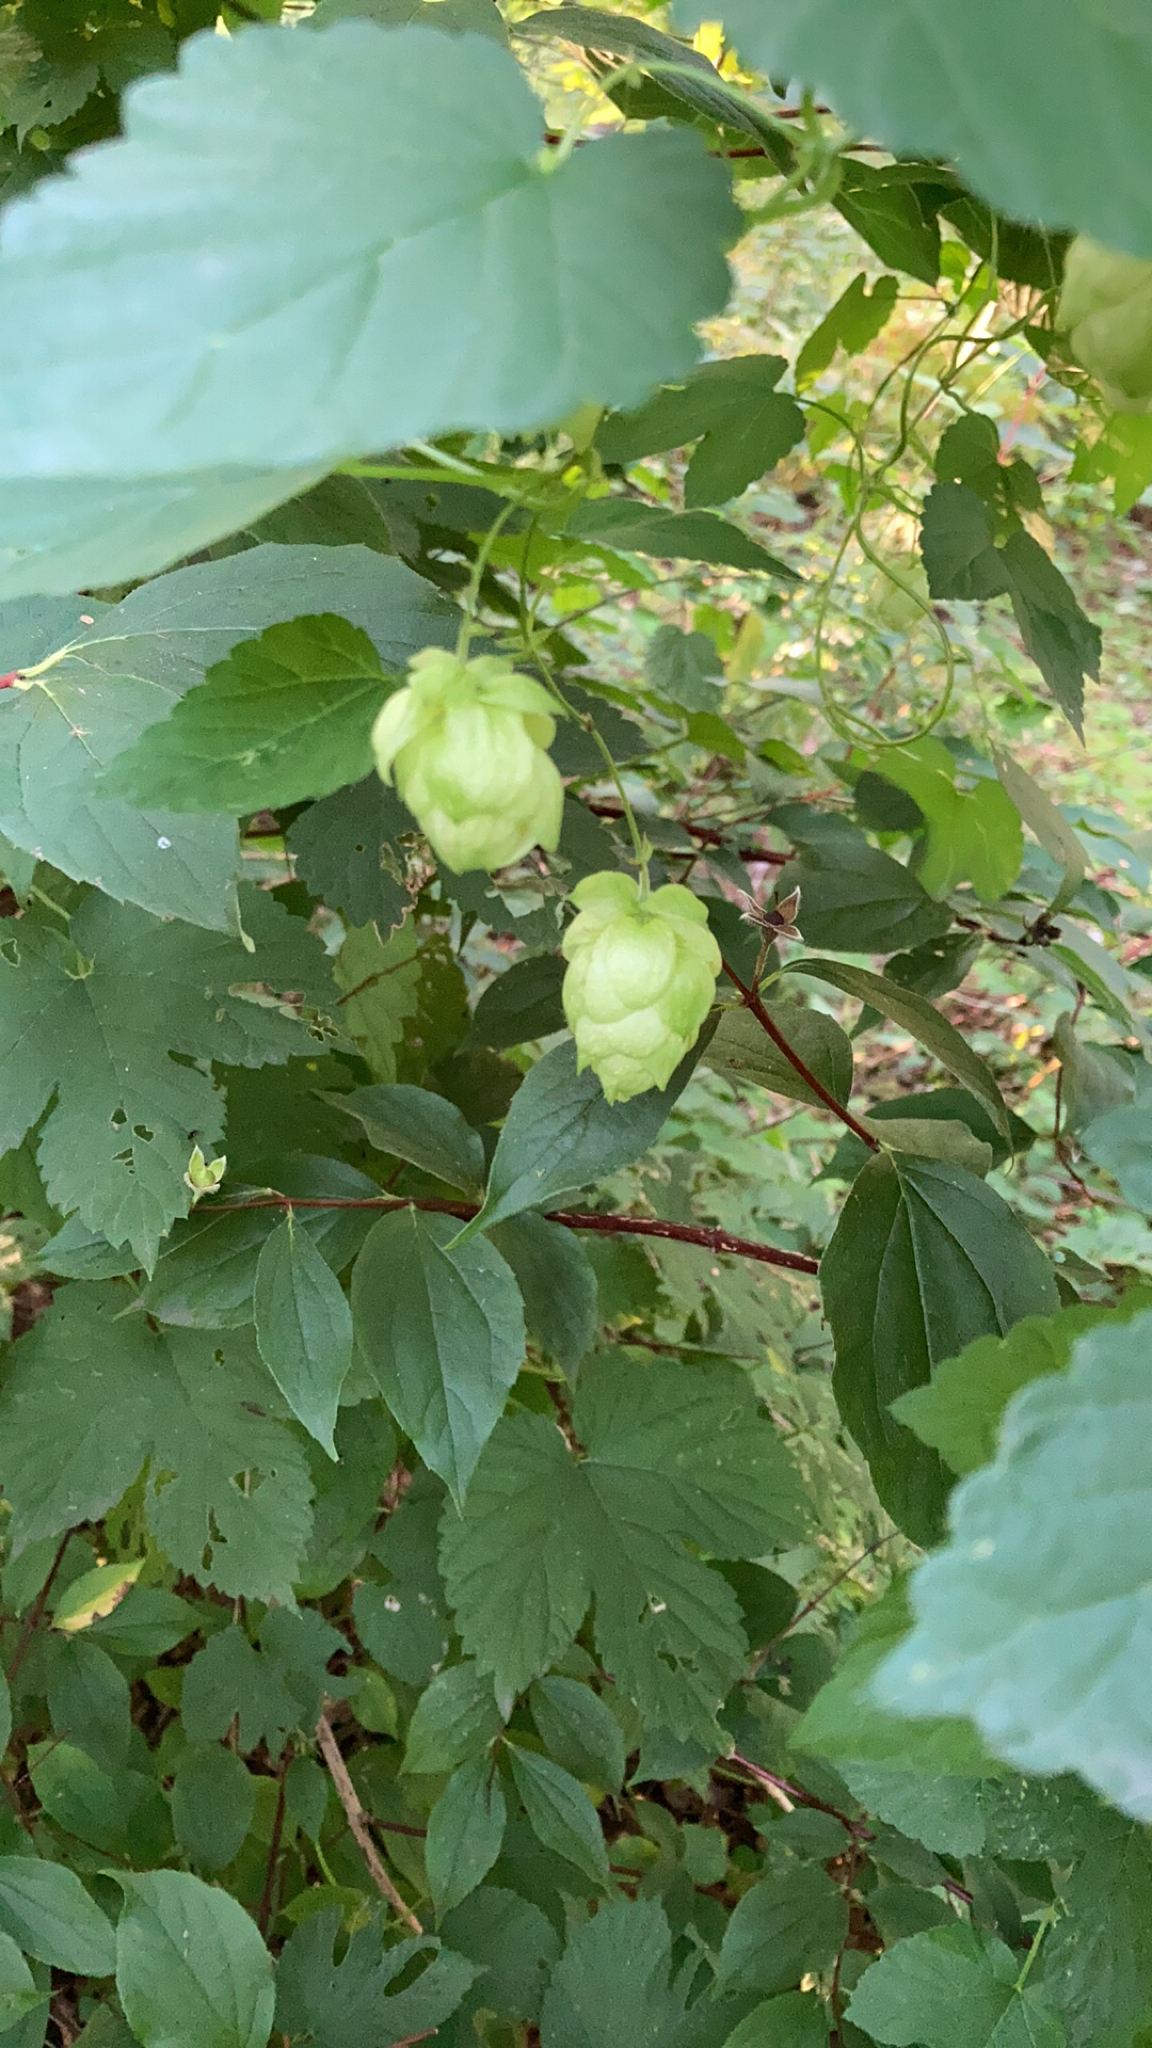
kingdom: Plantae
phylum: Tracheophyta
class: Magnoliopsida
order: Rosales
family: Cannabaceae
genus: Humulus
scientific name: Humulus lupulus
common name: Hop
